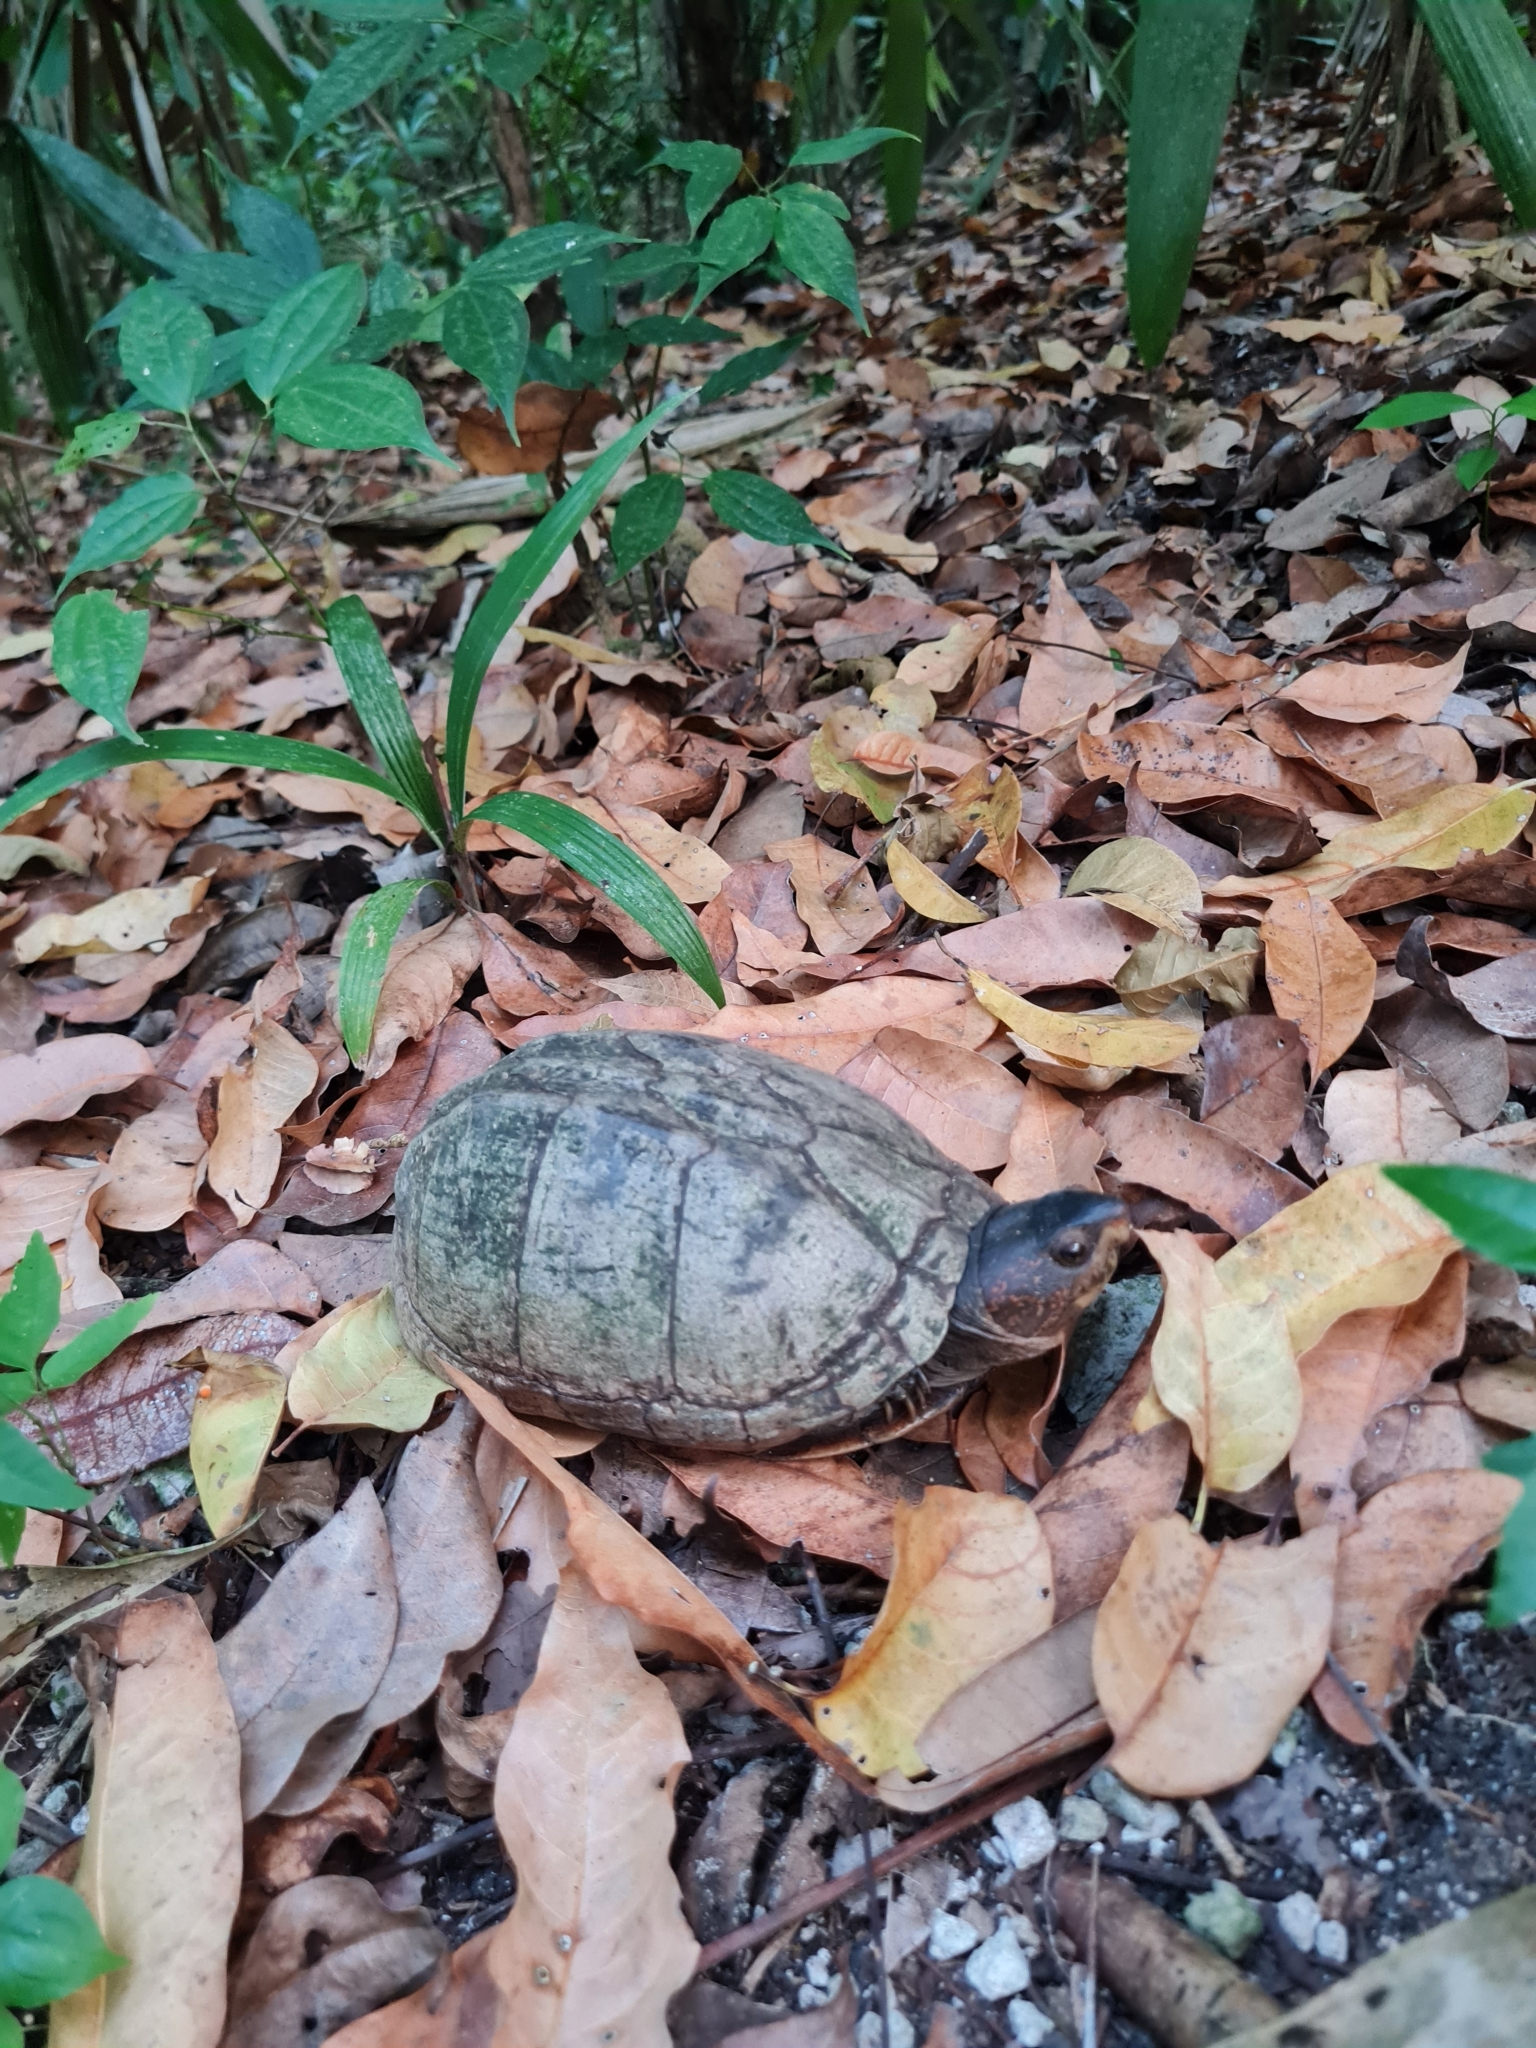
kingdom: Animalia
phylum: Chordata
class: Testudines
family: Kinosternidae
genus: Kinosternon
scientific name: Kinosternon scorpioides
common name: Scorpion mud turtle
